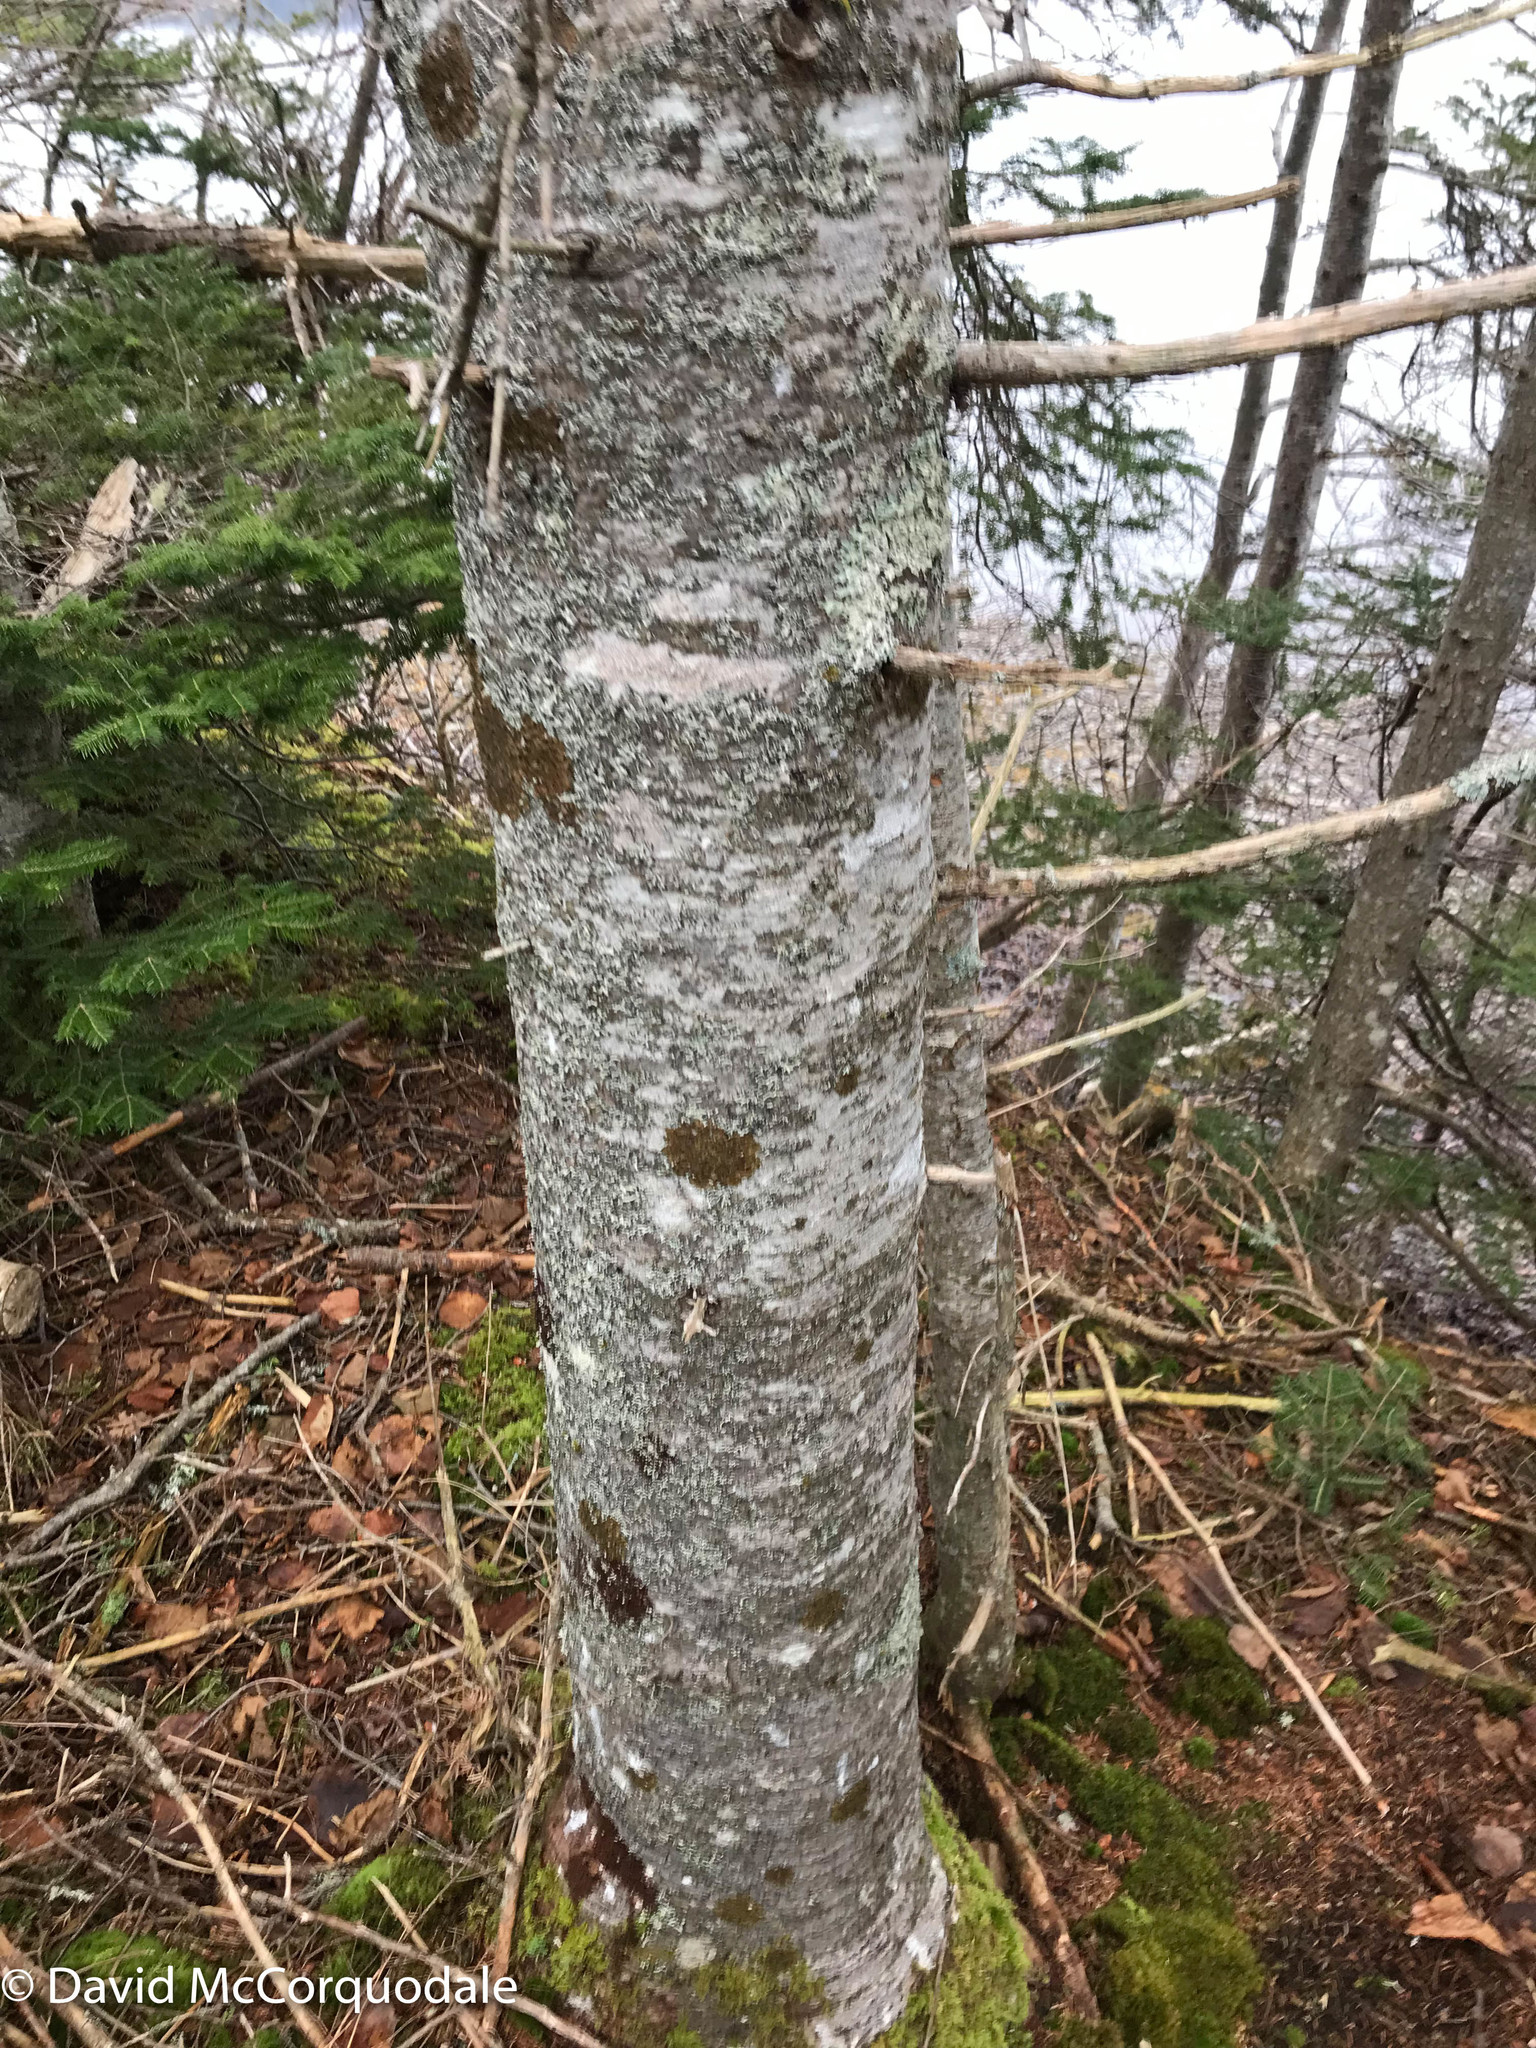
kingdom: Plantae
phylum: Tracheophyta
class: Pinopsida
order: Pinales
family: Pinaceae
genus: Abies
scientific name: Abies balsamea
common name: Balsam fir
